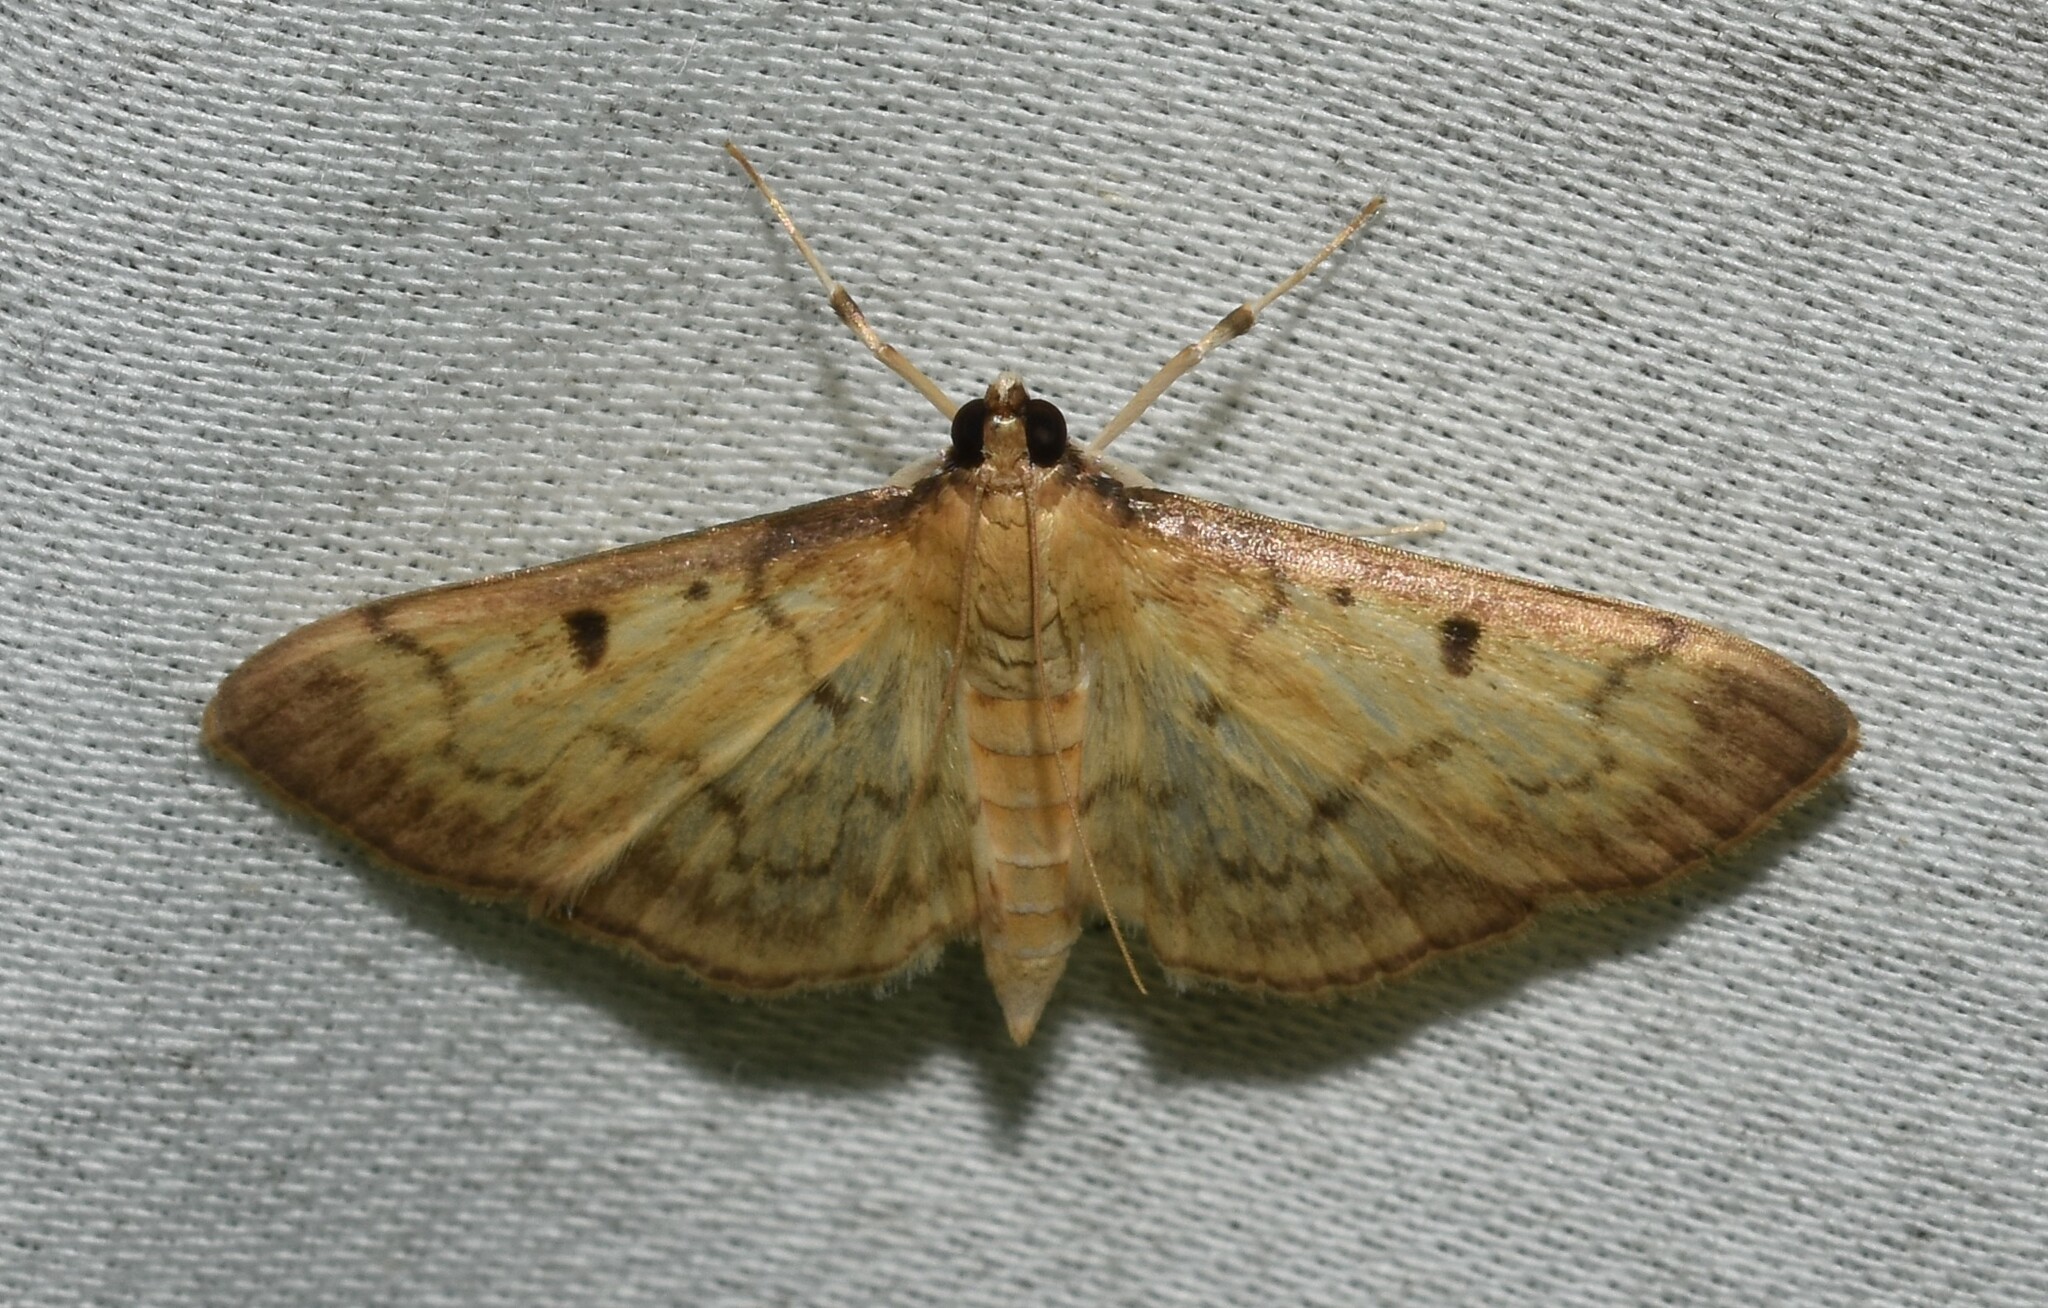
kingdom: Animalia
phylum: Arthropoda
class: Insecta
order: Lepidoptera
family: Crambidae
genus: Herpetogramma
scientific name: Herpetogramma fluctuosalis
